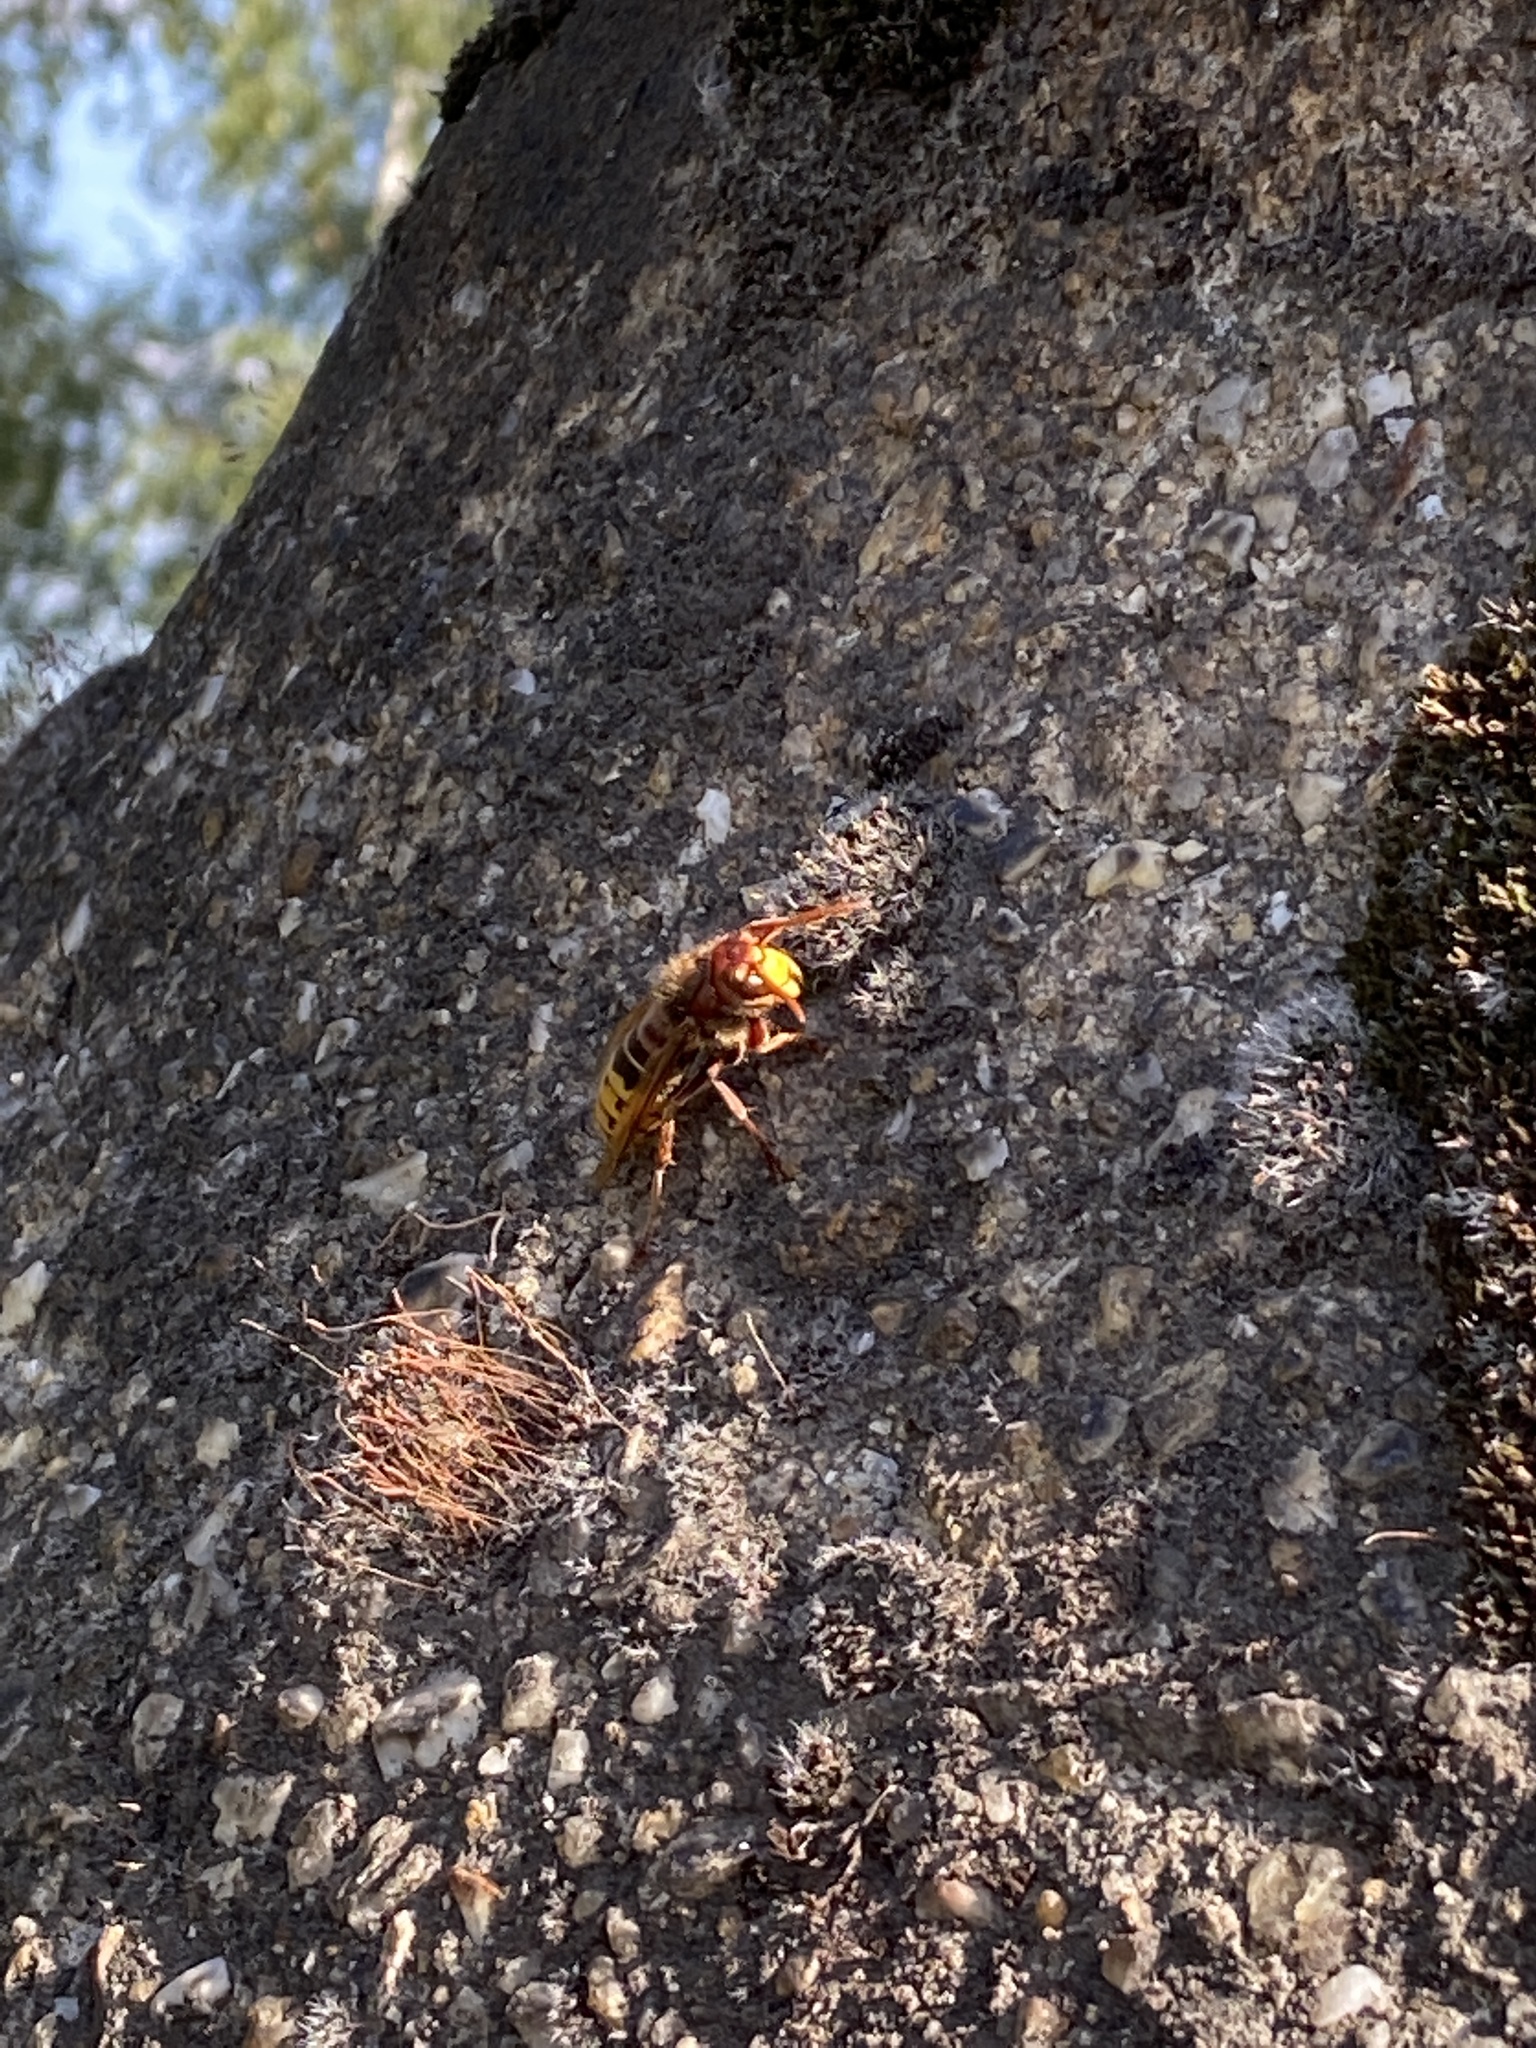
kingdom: Animalia
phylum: Arthropoda
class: Insecta
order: Hymenoptera
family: Vespidae
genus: Vespa
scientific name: Vespa crabro
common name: Hornet
